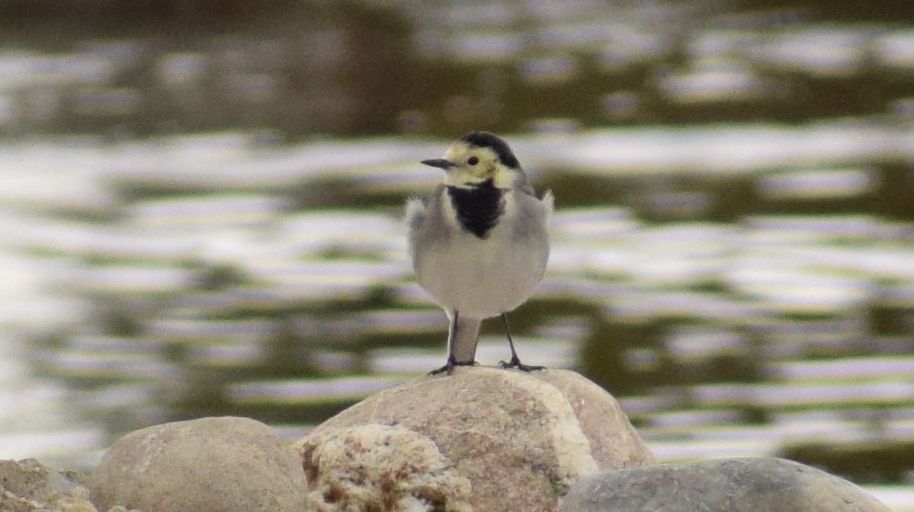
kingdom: Animalia
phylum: Chordata
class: Aves
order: Passeriformes
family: Motacillidae
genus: Motacilla
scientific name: Motacilla alba
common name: White wagtail
